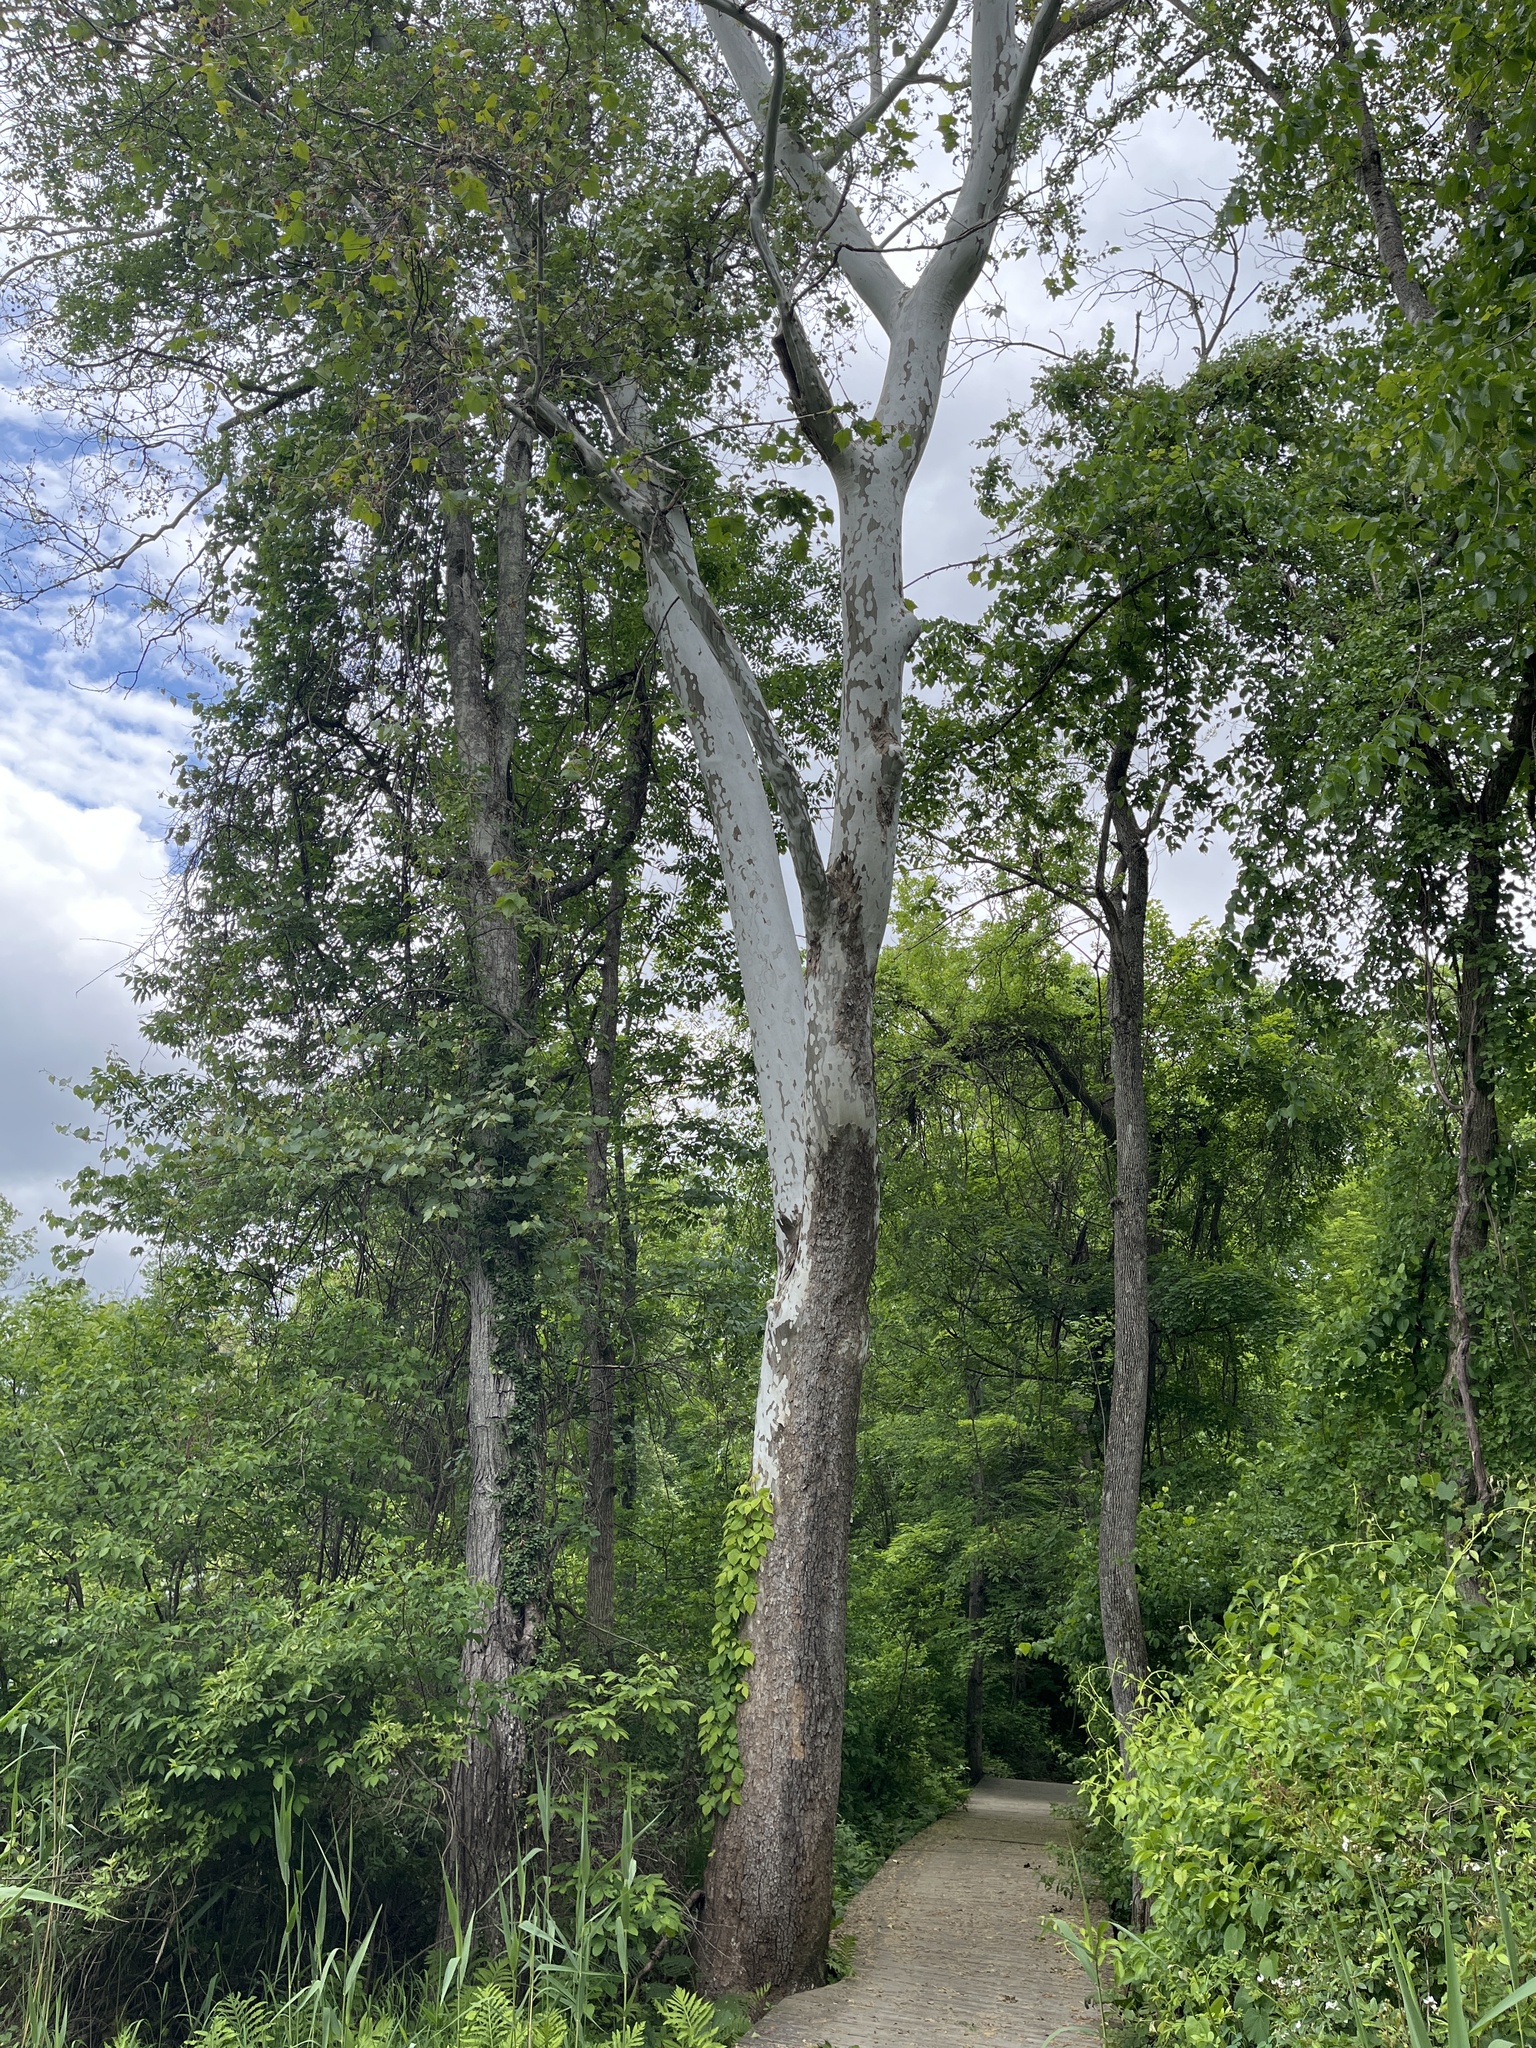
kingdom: Plantae
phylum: Tracheophyta
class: Magnoliopsida
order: Proteales
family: Platanaceae
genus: Platanus
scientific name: Platanus occidentalis
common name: American sycamore
